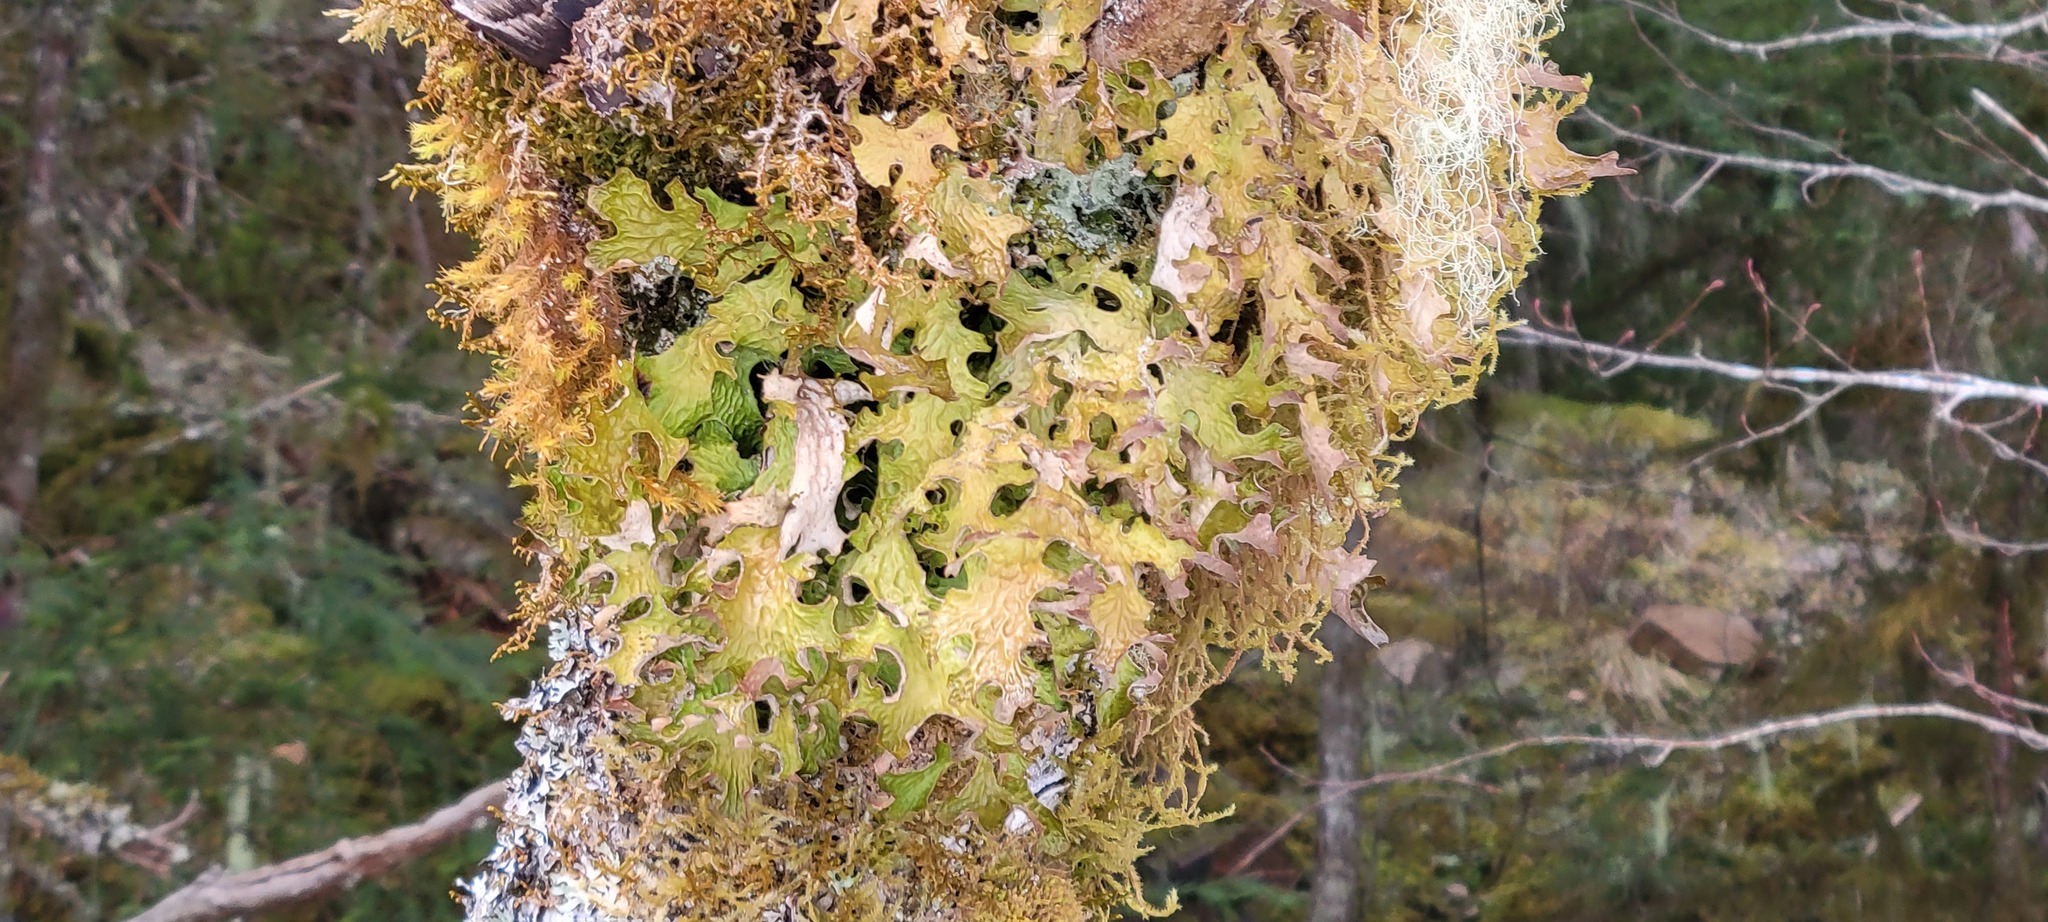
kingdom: Fungi
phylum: Ascomycota
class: Lecanoromycetes
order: Peltigerales
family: Lobariaceae
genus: Lobaria
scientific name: Lobaria pulmonaria
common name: Lungwort
